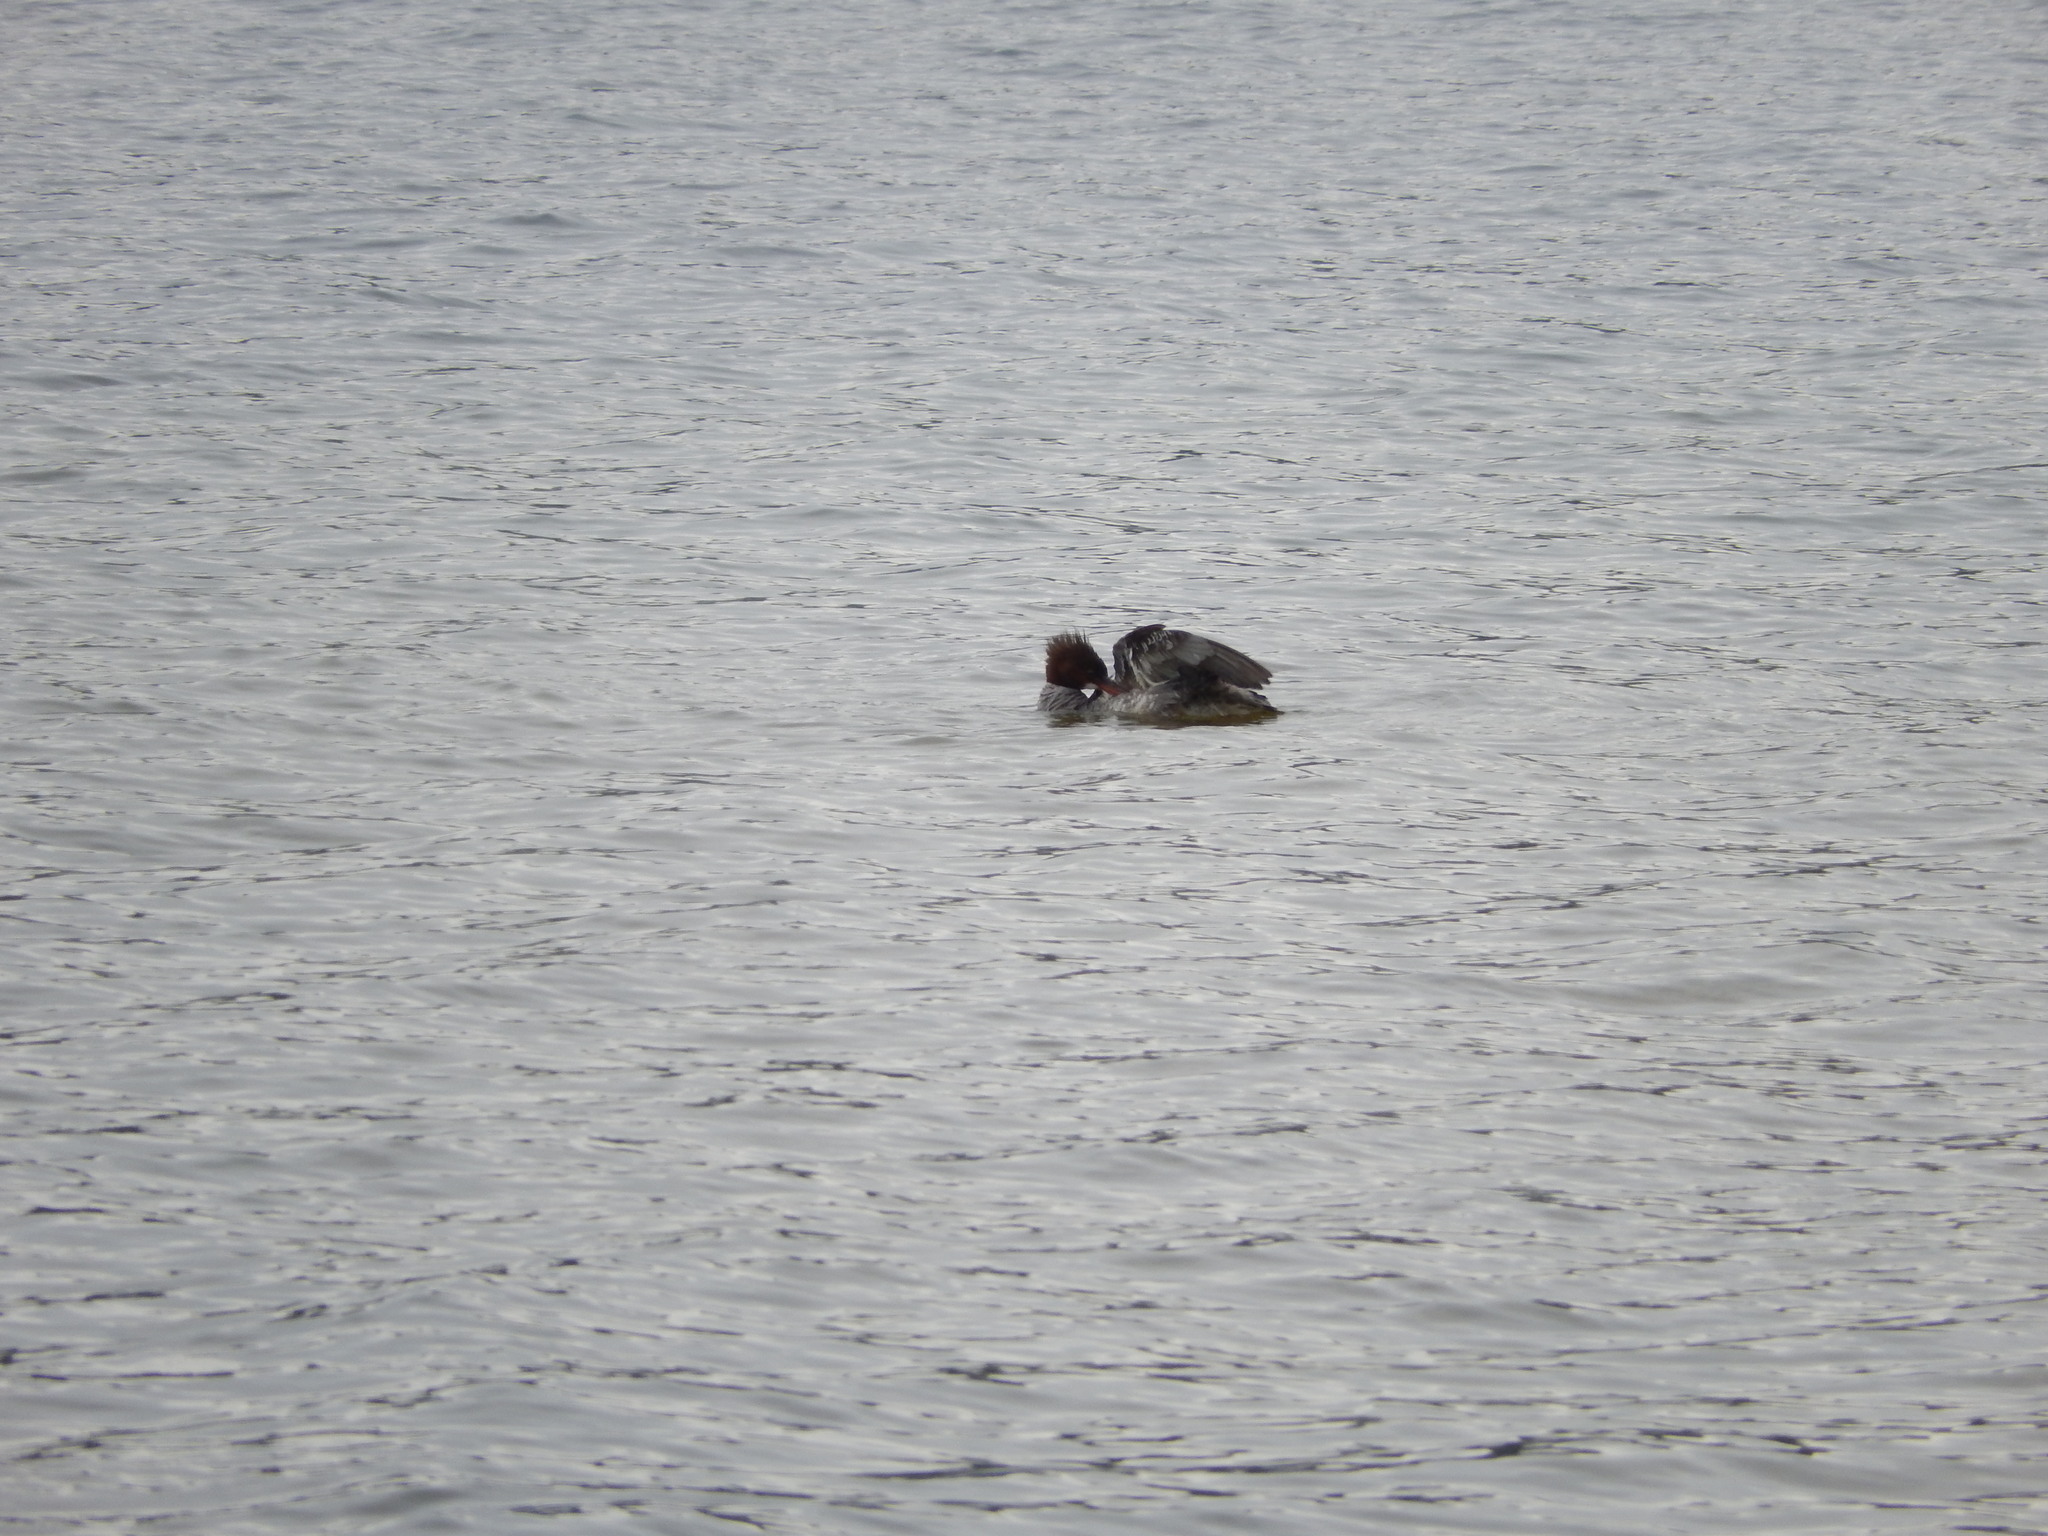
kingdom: Animalia
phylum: Chordata
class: Aves
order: Anseriformes
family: Anatidae
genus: Mergus
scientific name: Mergus merganser
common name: Common merganser
